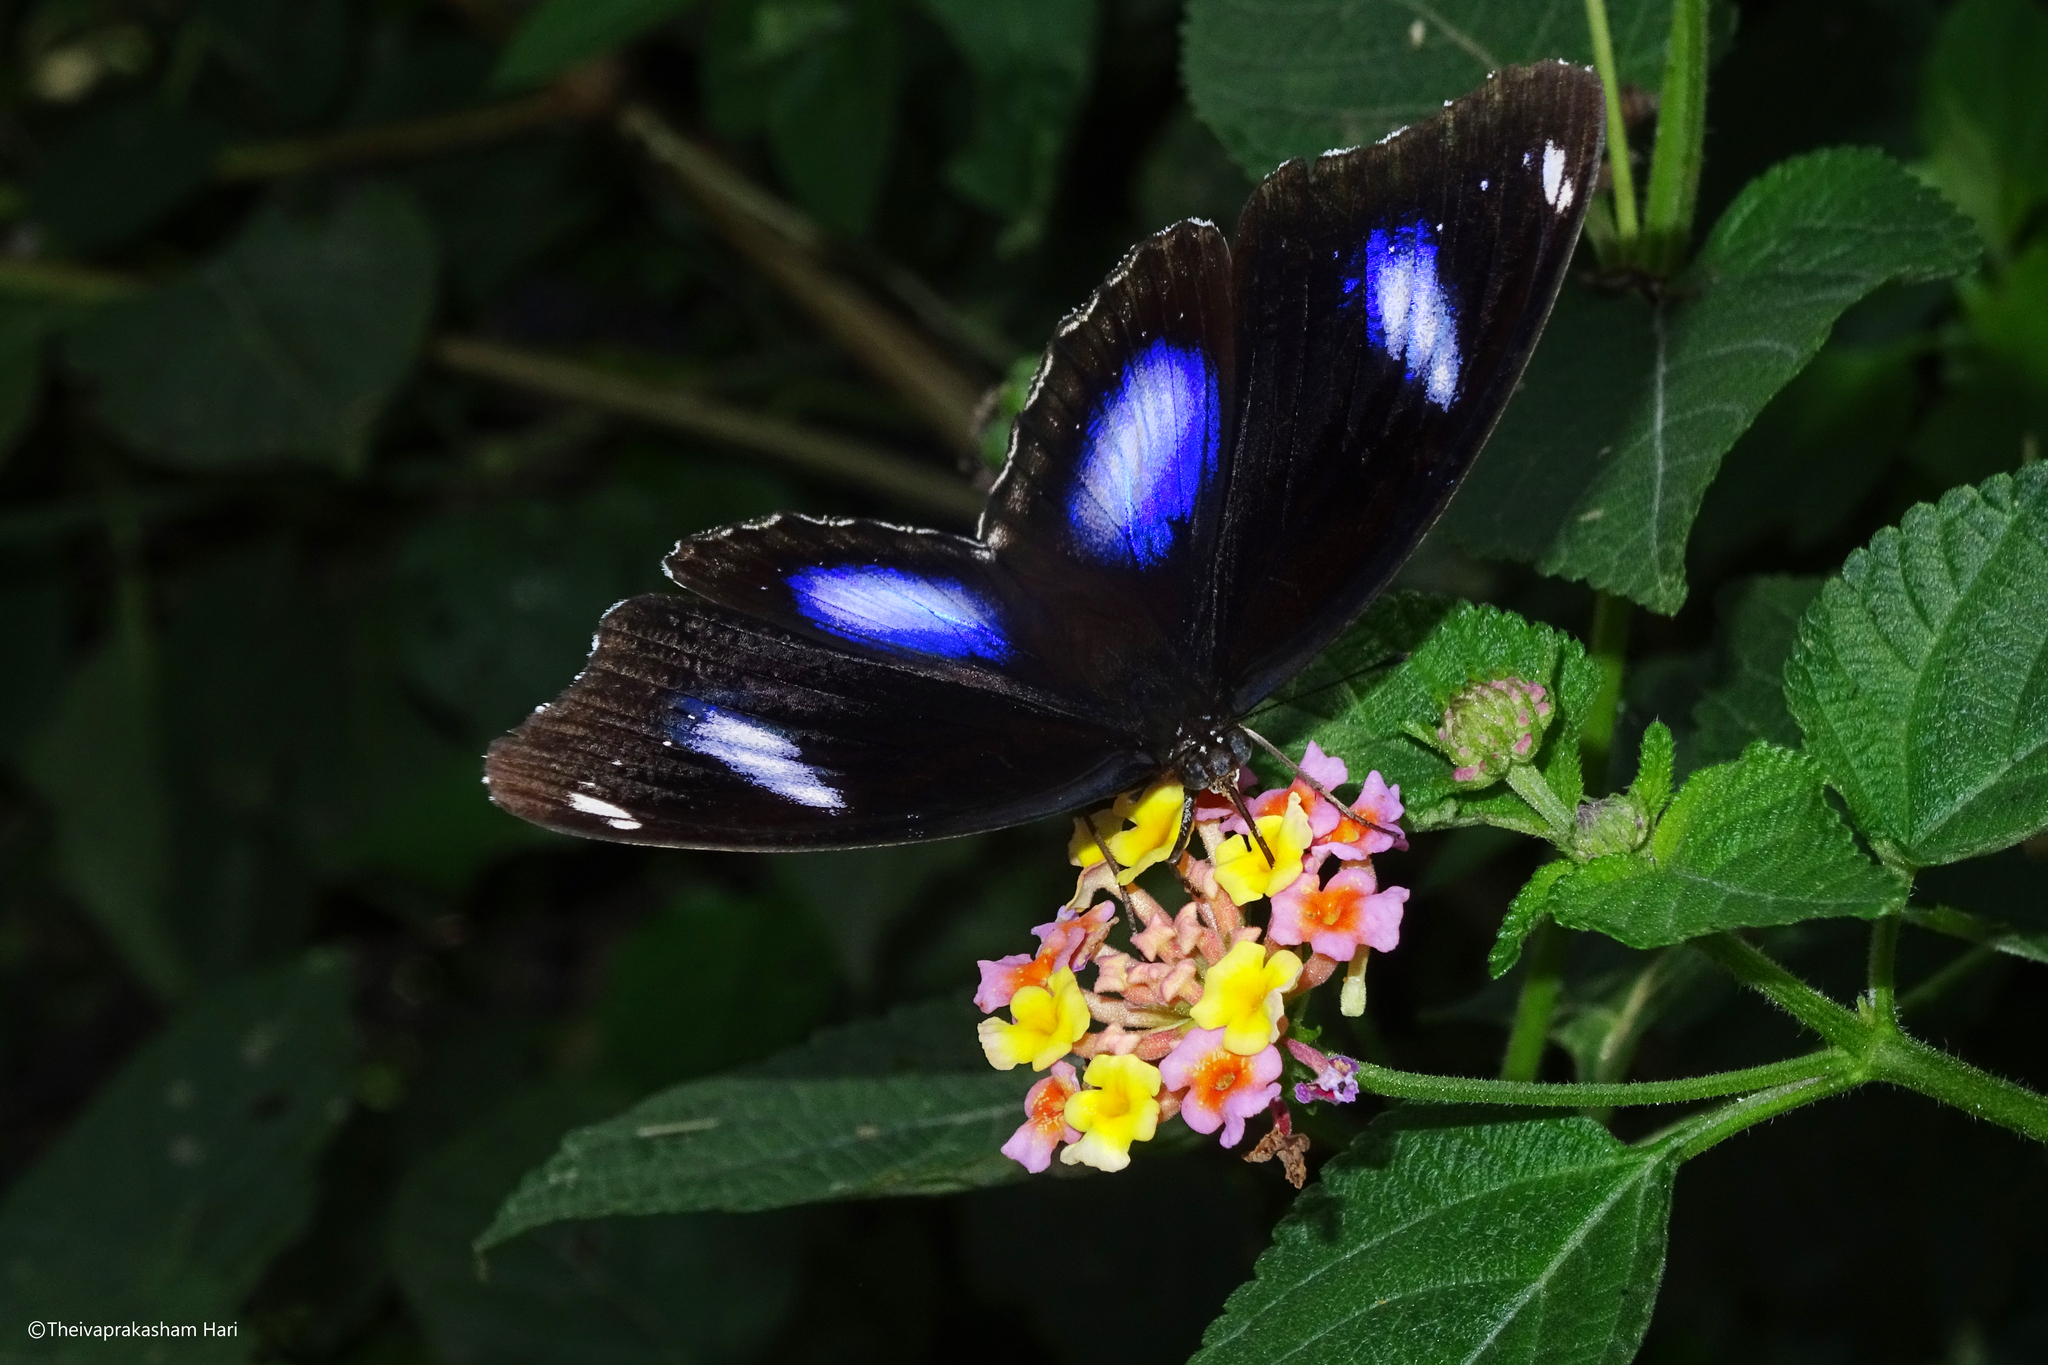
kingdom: Animalia
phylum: Arthropoda
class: Insecta
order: Lepidoptera
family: Nymphalidae
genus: Hypolimnas
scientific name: Hypolimnas bolina
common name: Great eggfly
